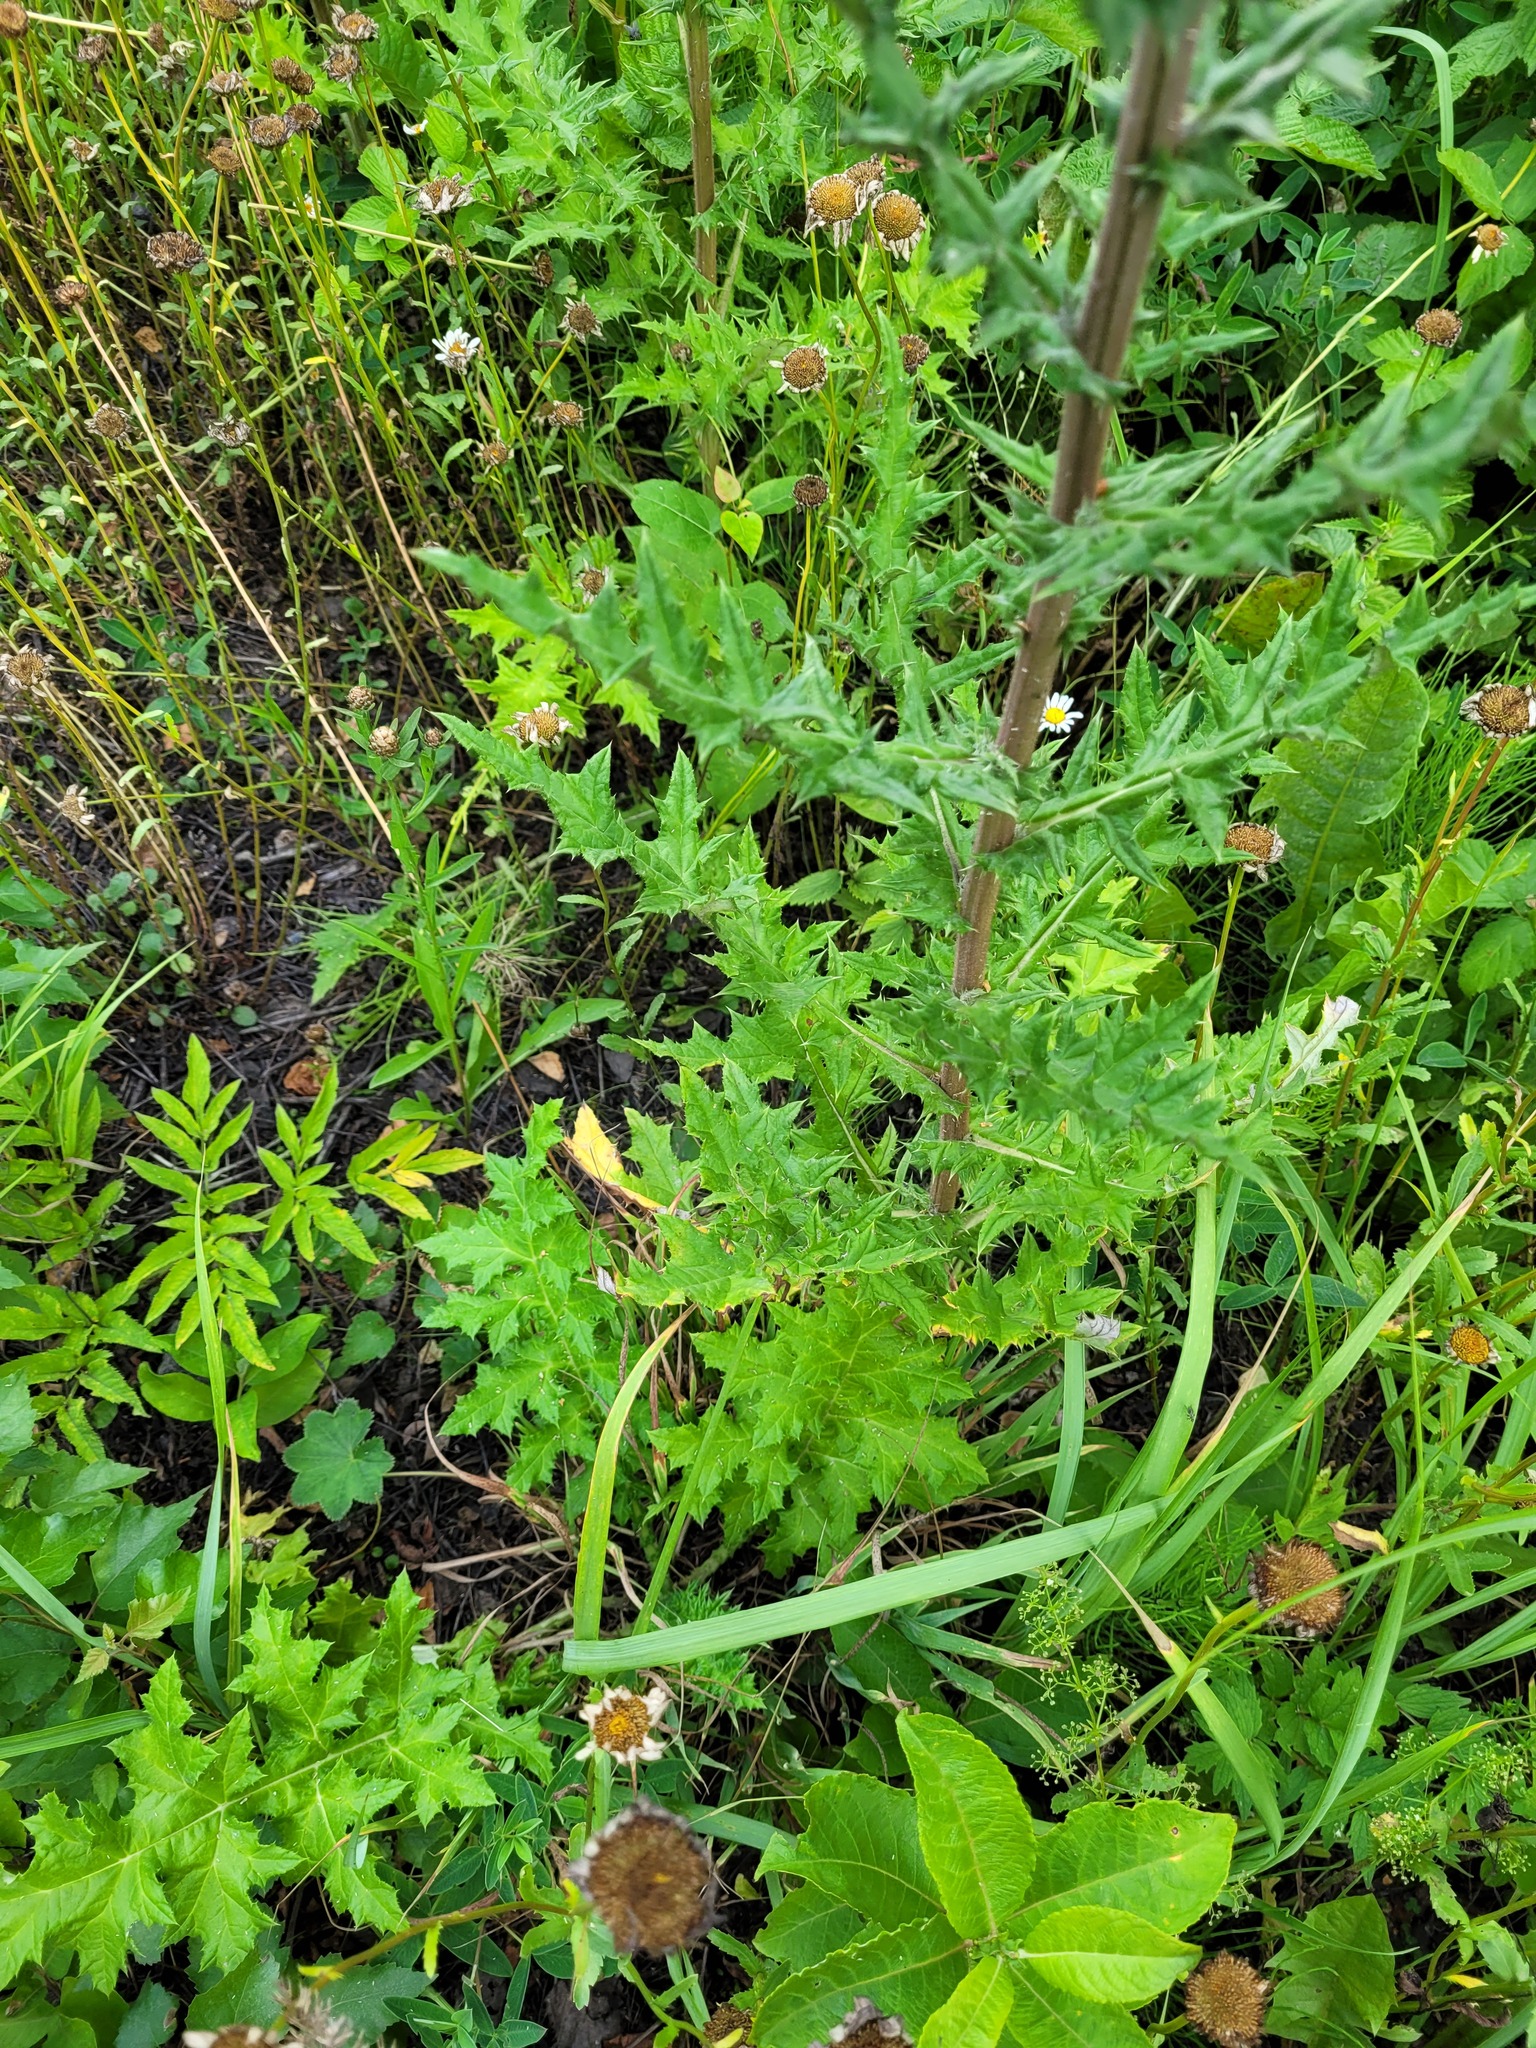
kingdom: Plantae
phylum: Tracheophyta
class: Magnoliopsida
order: Asterales
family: Asteraceae
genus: Echinops
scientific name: Echinops sphaerocephalus
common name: Glandular globe-thistle
